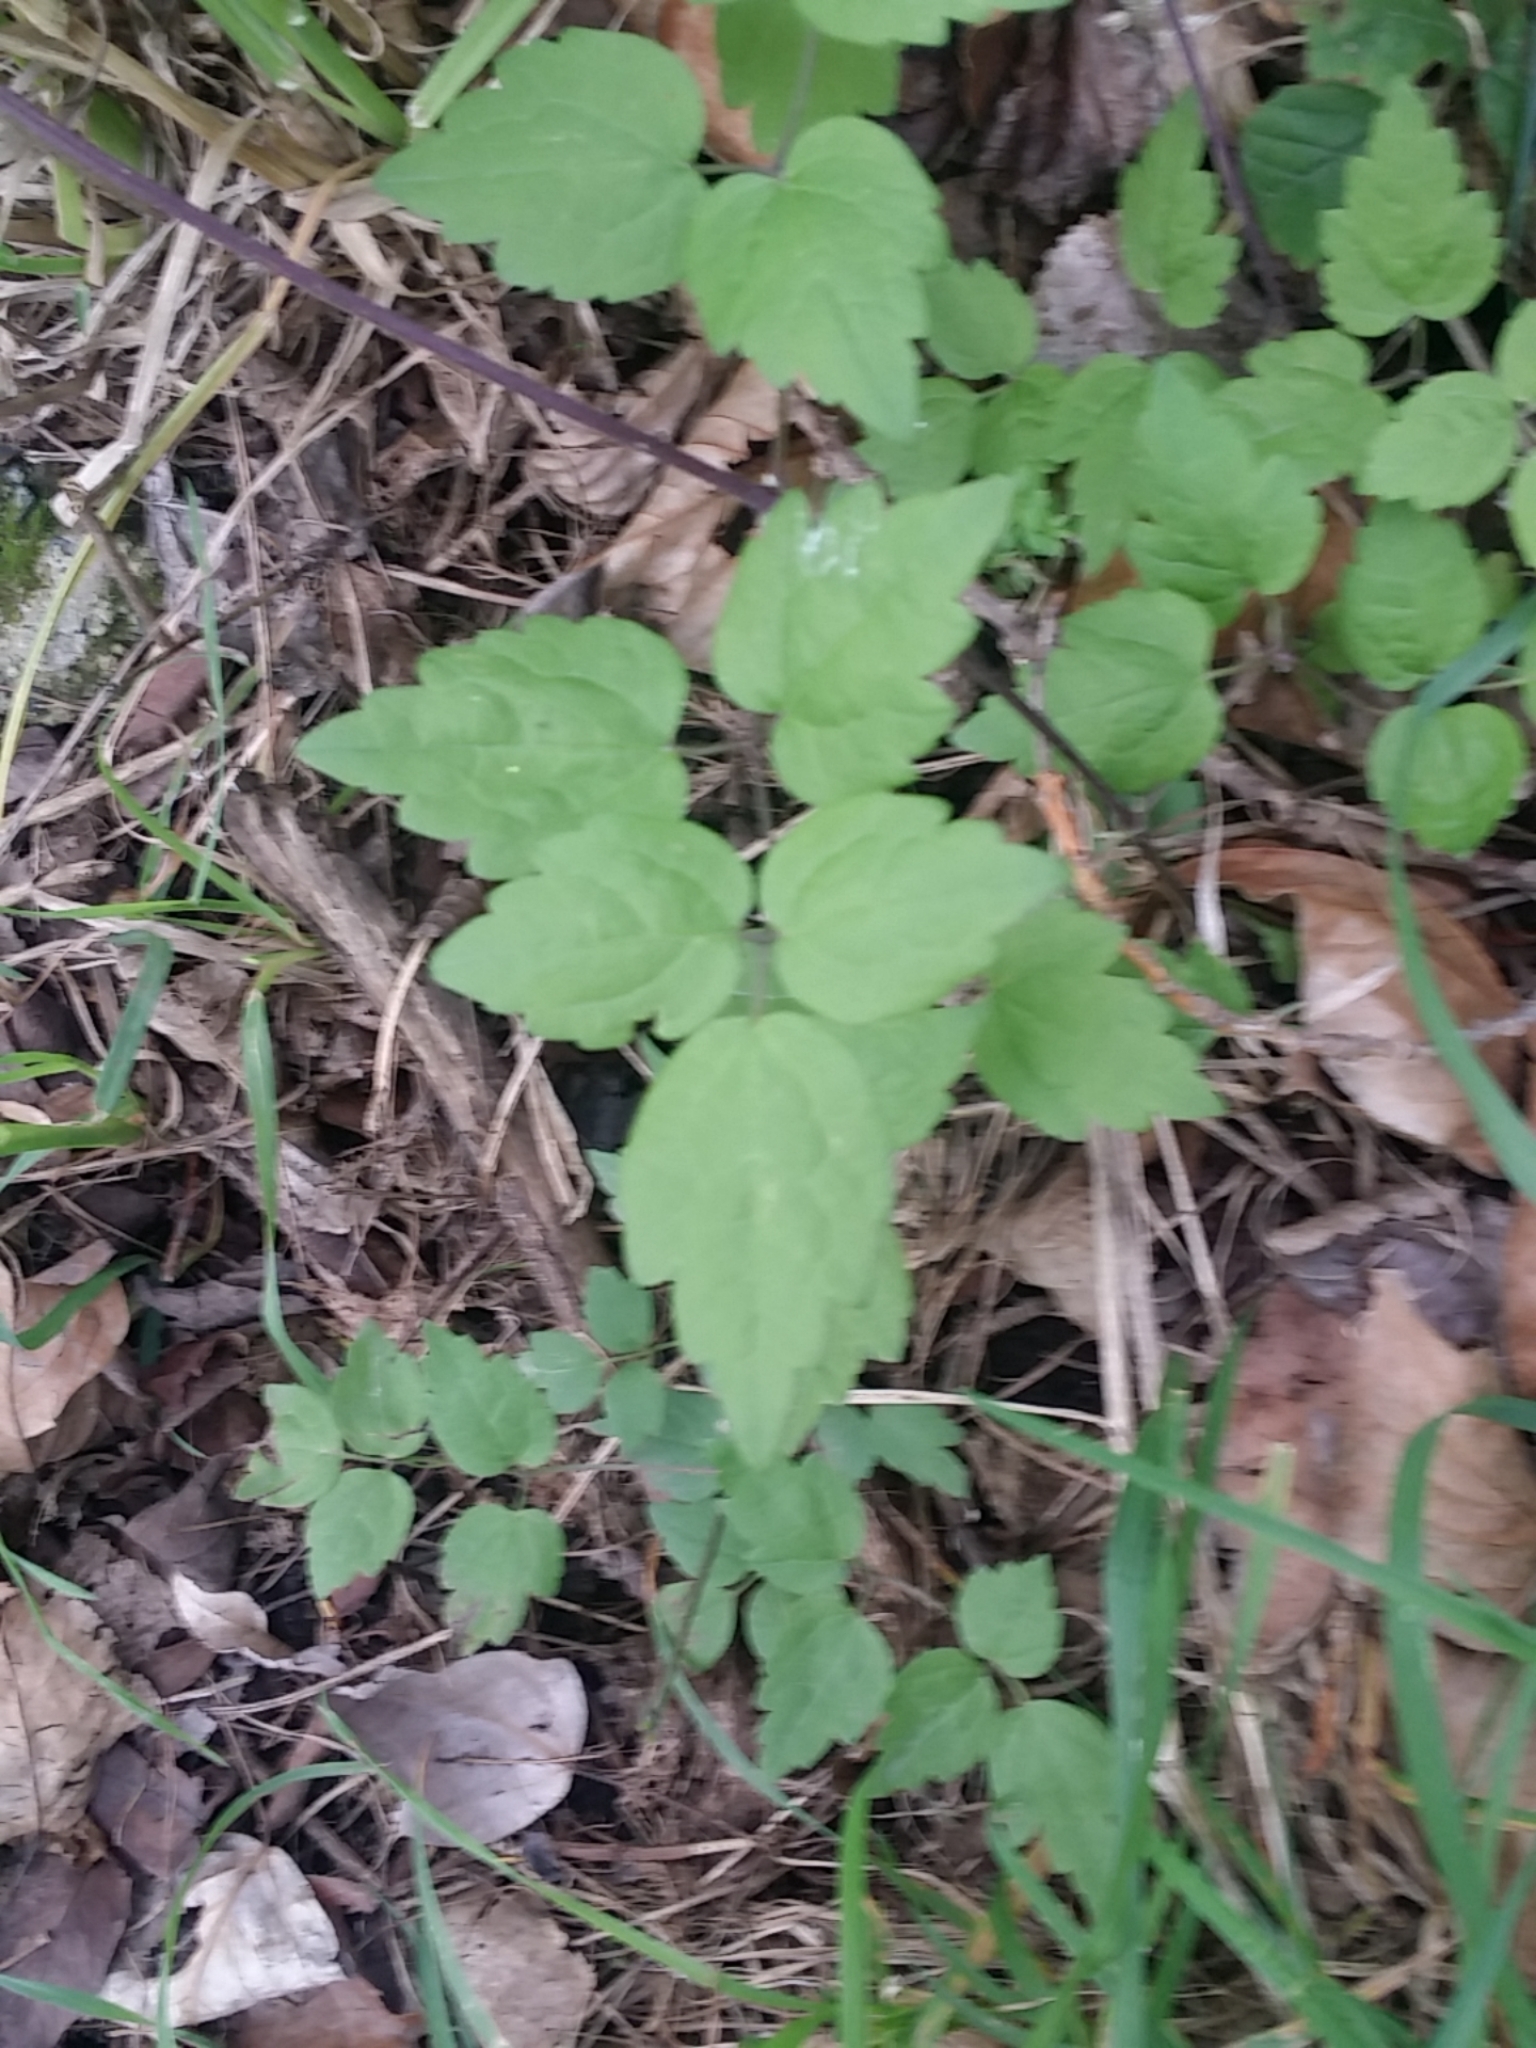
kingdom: Plantae
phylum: Tracheophyta
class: Magnoliopsida
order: Ranunculales
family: Ranunculaceae
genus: Clematis
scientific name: Clematis vitalba
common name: Evergreen clematis
